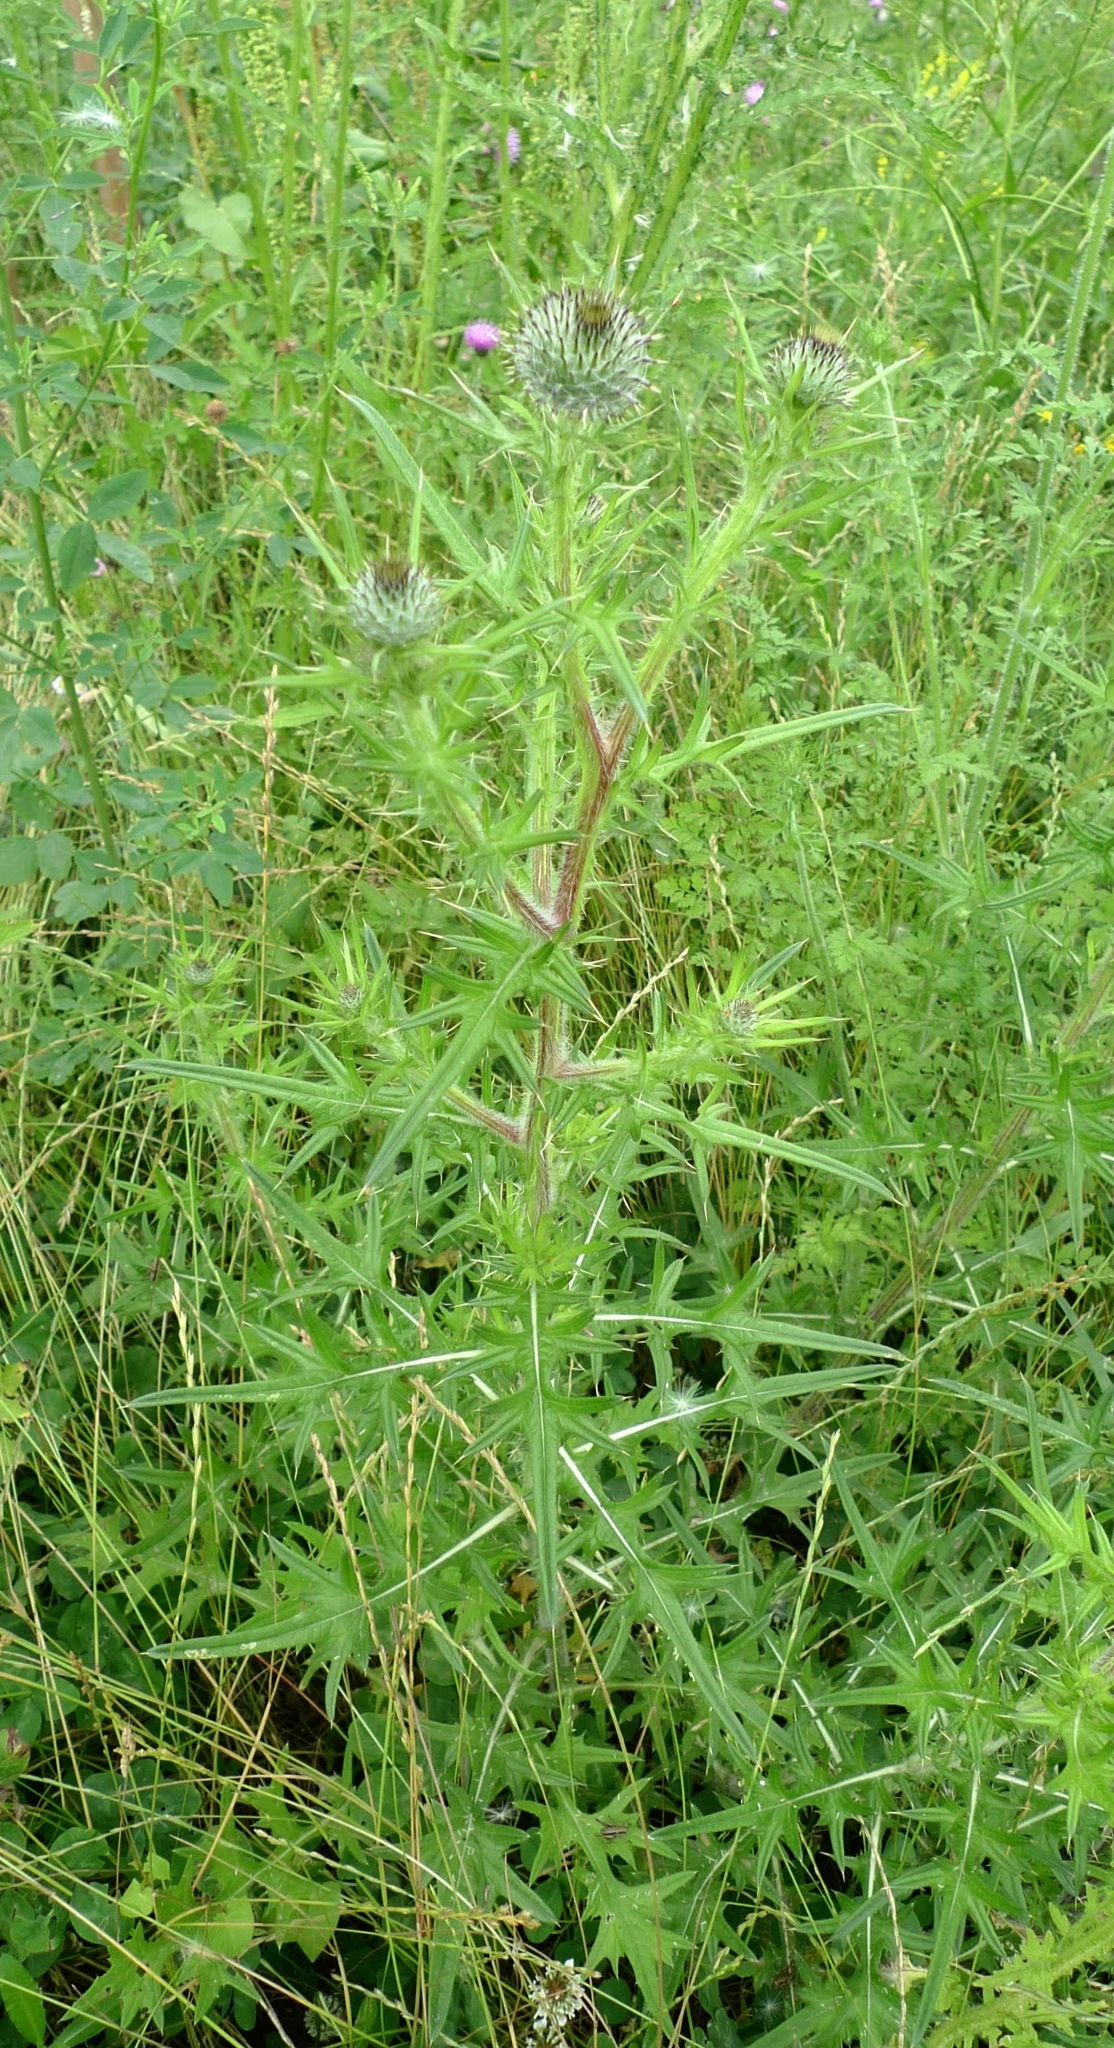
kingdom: Plantae
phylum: Tracheophyta
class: Magnoliopsida
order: Asterales
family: Asteraceae
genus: Cirsium
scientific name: Cirsium vulgare
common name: Bull thistle
